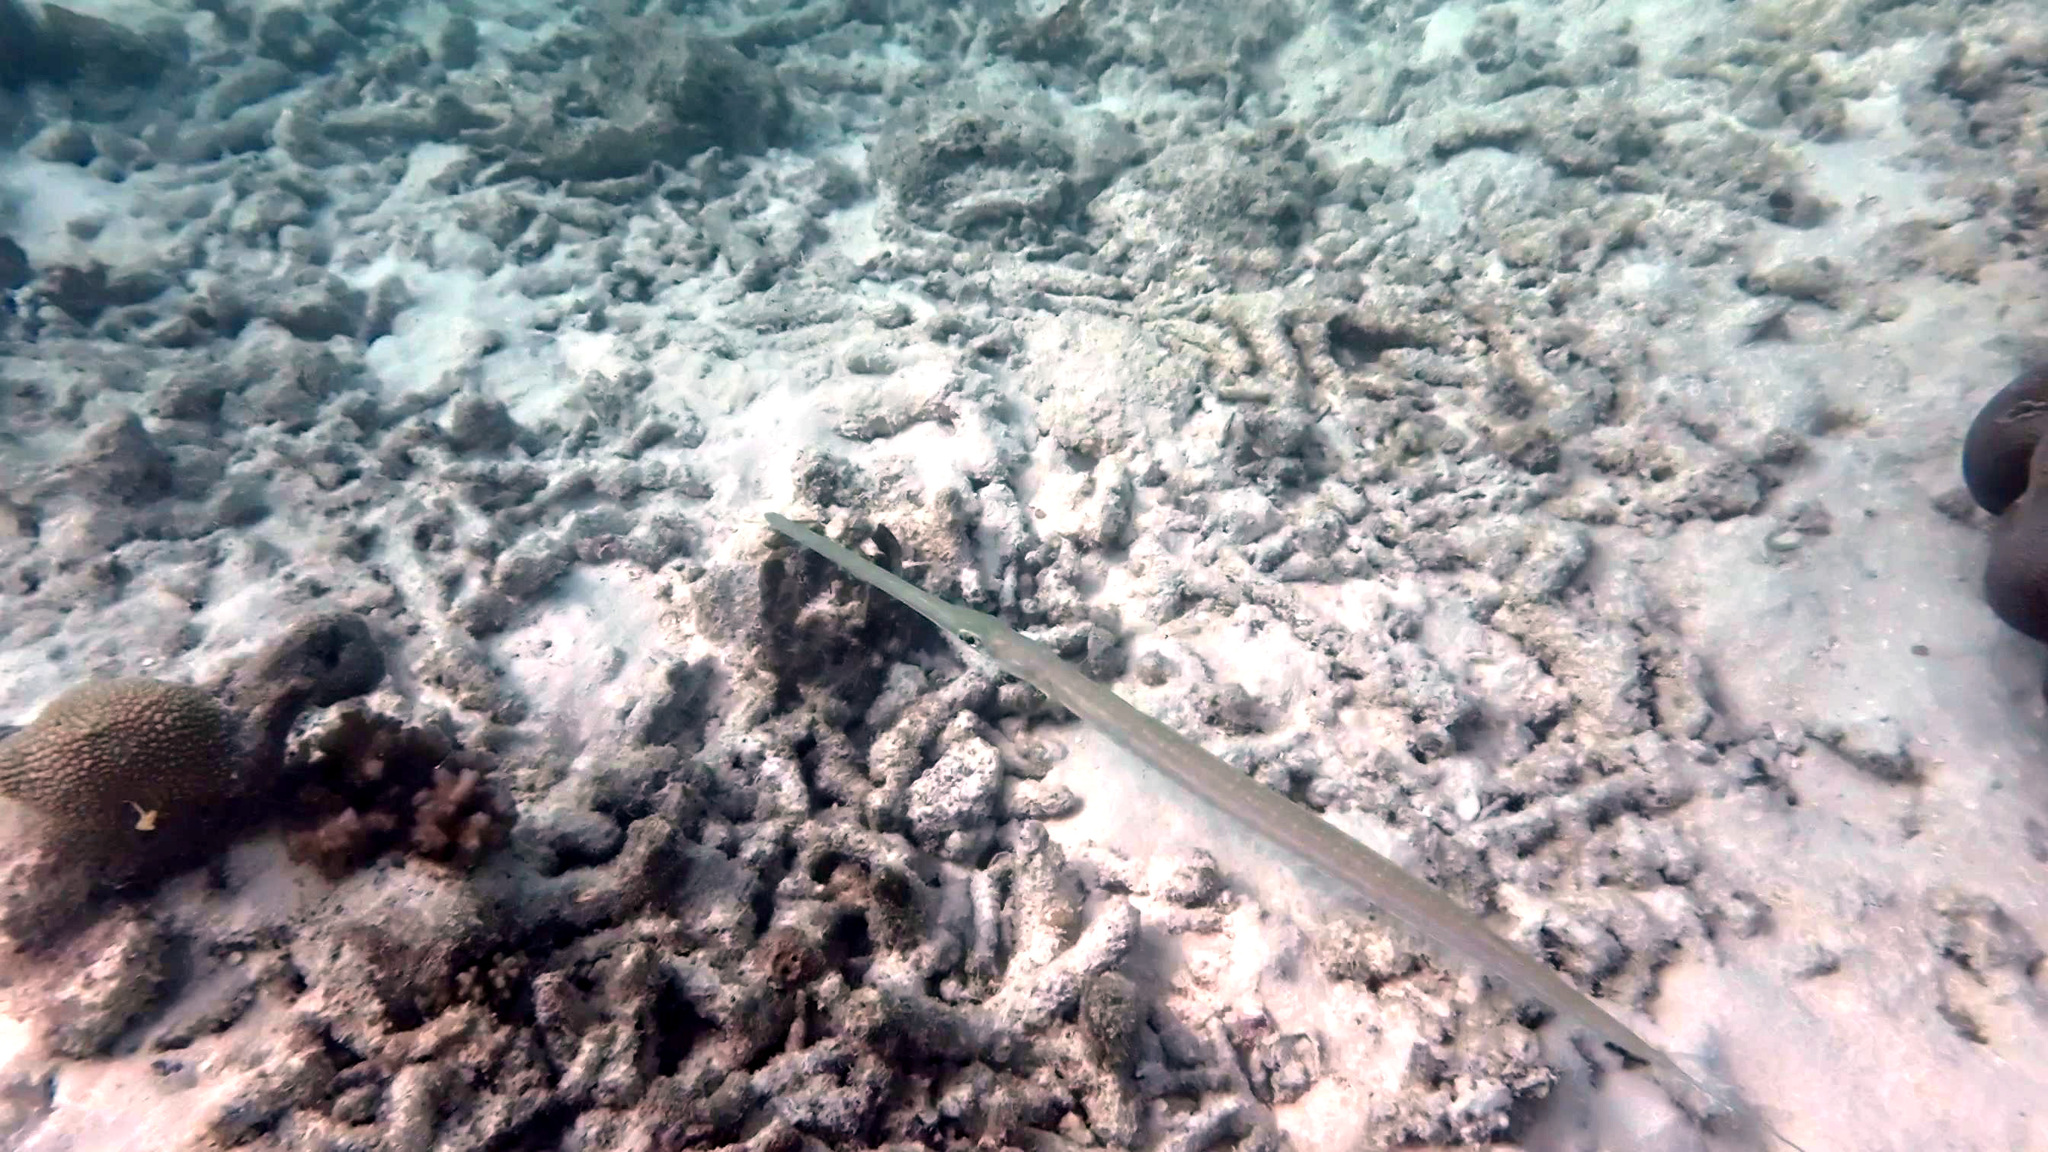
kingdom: Animalia
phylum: Chordata
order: Syngnathiformes
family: Fistulariidae
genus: Fistularia
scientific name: Fistularia commersonii
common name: Bluespotted cornetfish
